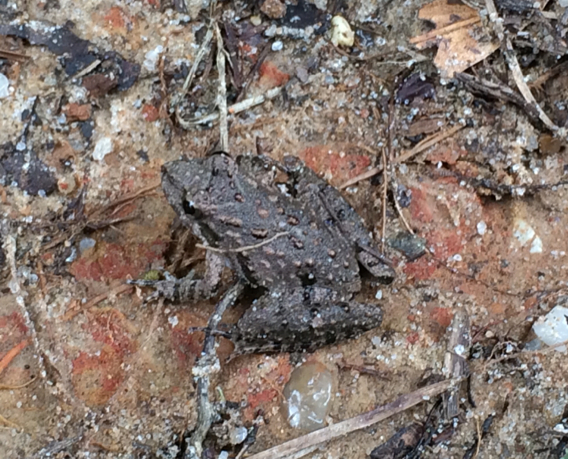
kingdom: Animalia
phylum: Chordata
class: Amphibia
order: Anura
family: Hylidae
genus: Acris
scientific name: Acris blanchardi
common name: Blanchard's cricket frog
